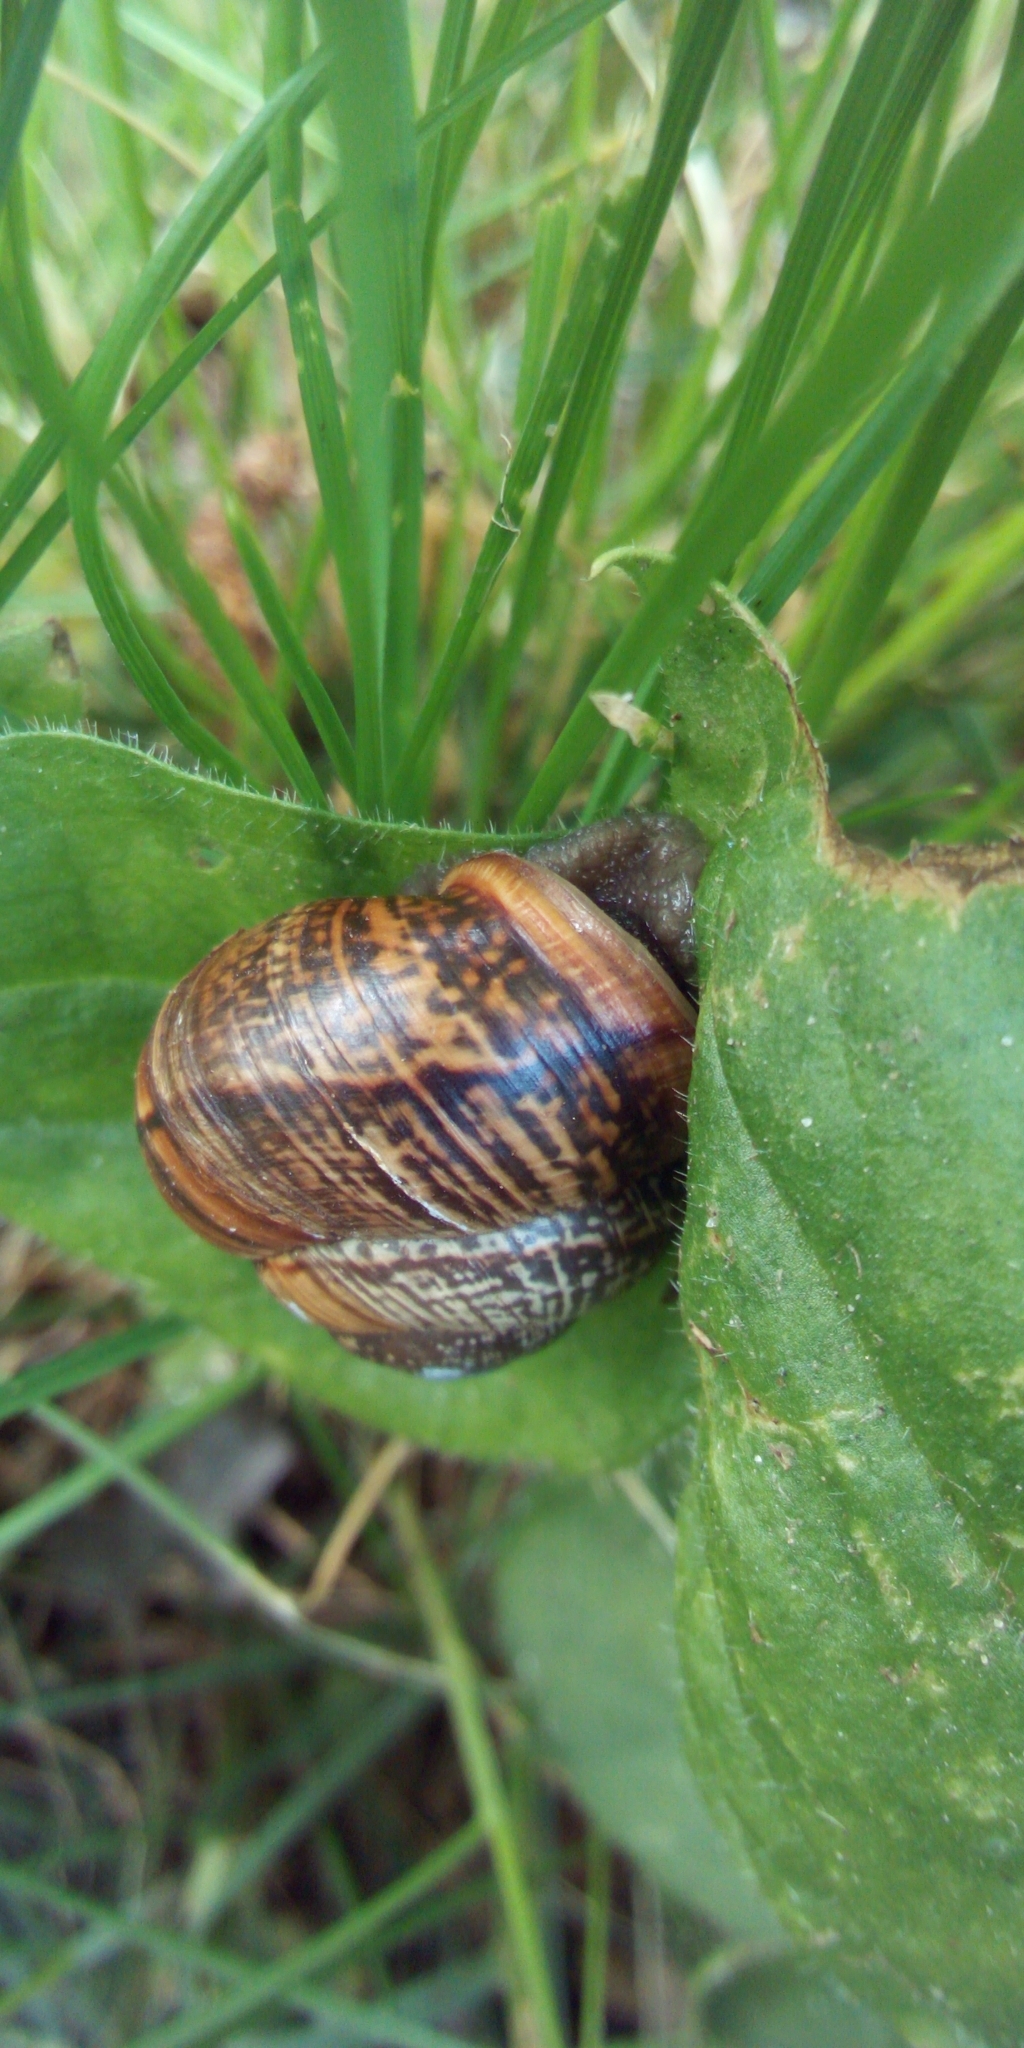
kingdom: Animalia
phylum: Mollusca
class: Gastropoda
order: Stylommatophora
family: Helicidae
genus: Arianta
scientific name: Arianta arbustorum
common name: Copse snail
